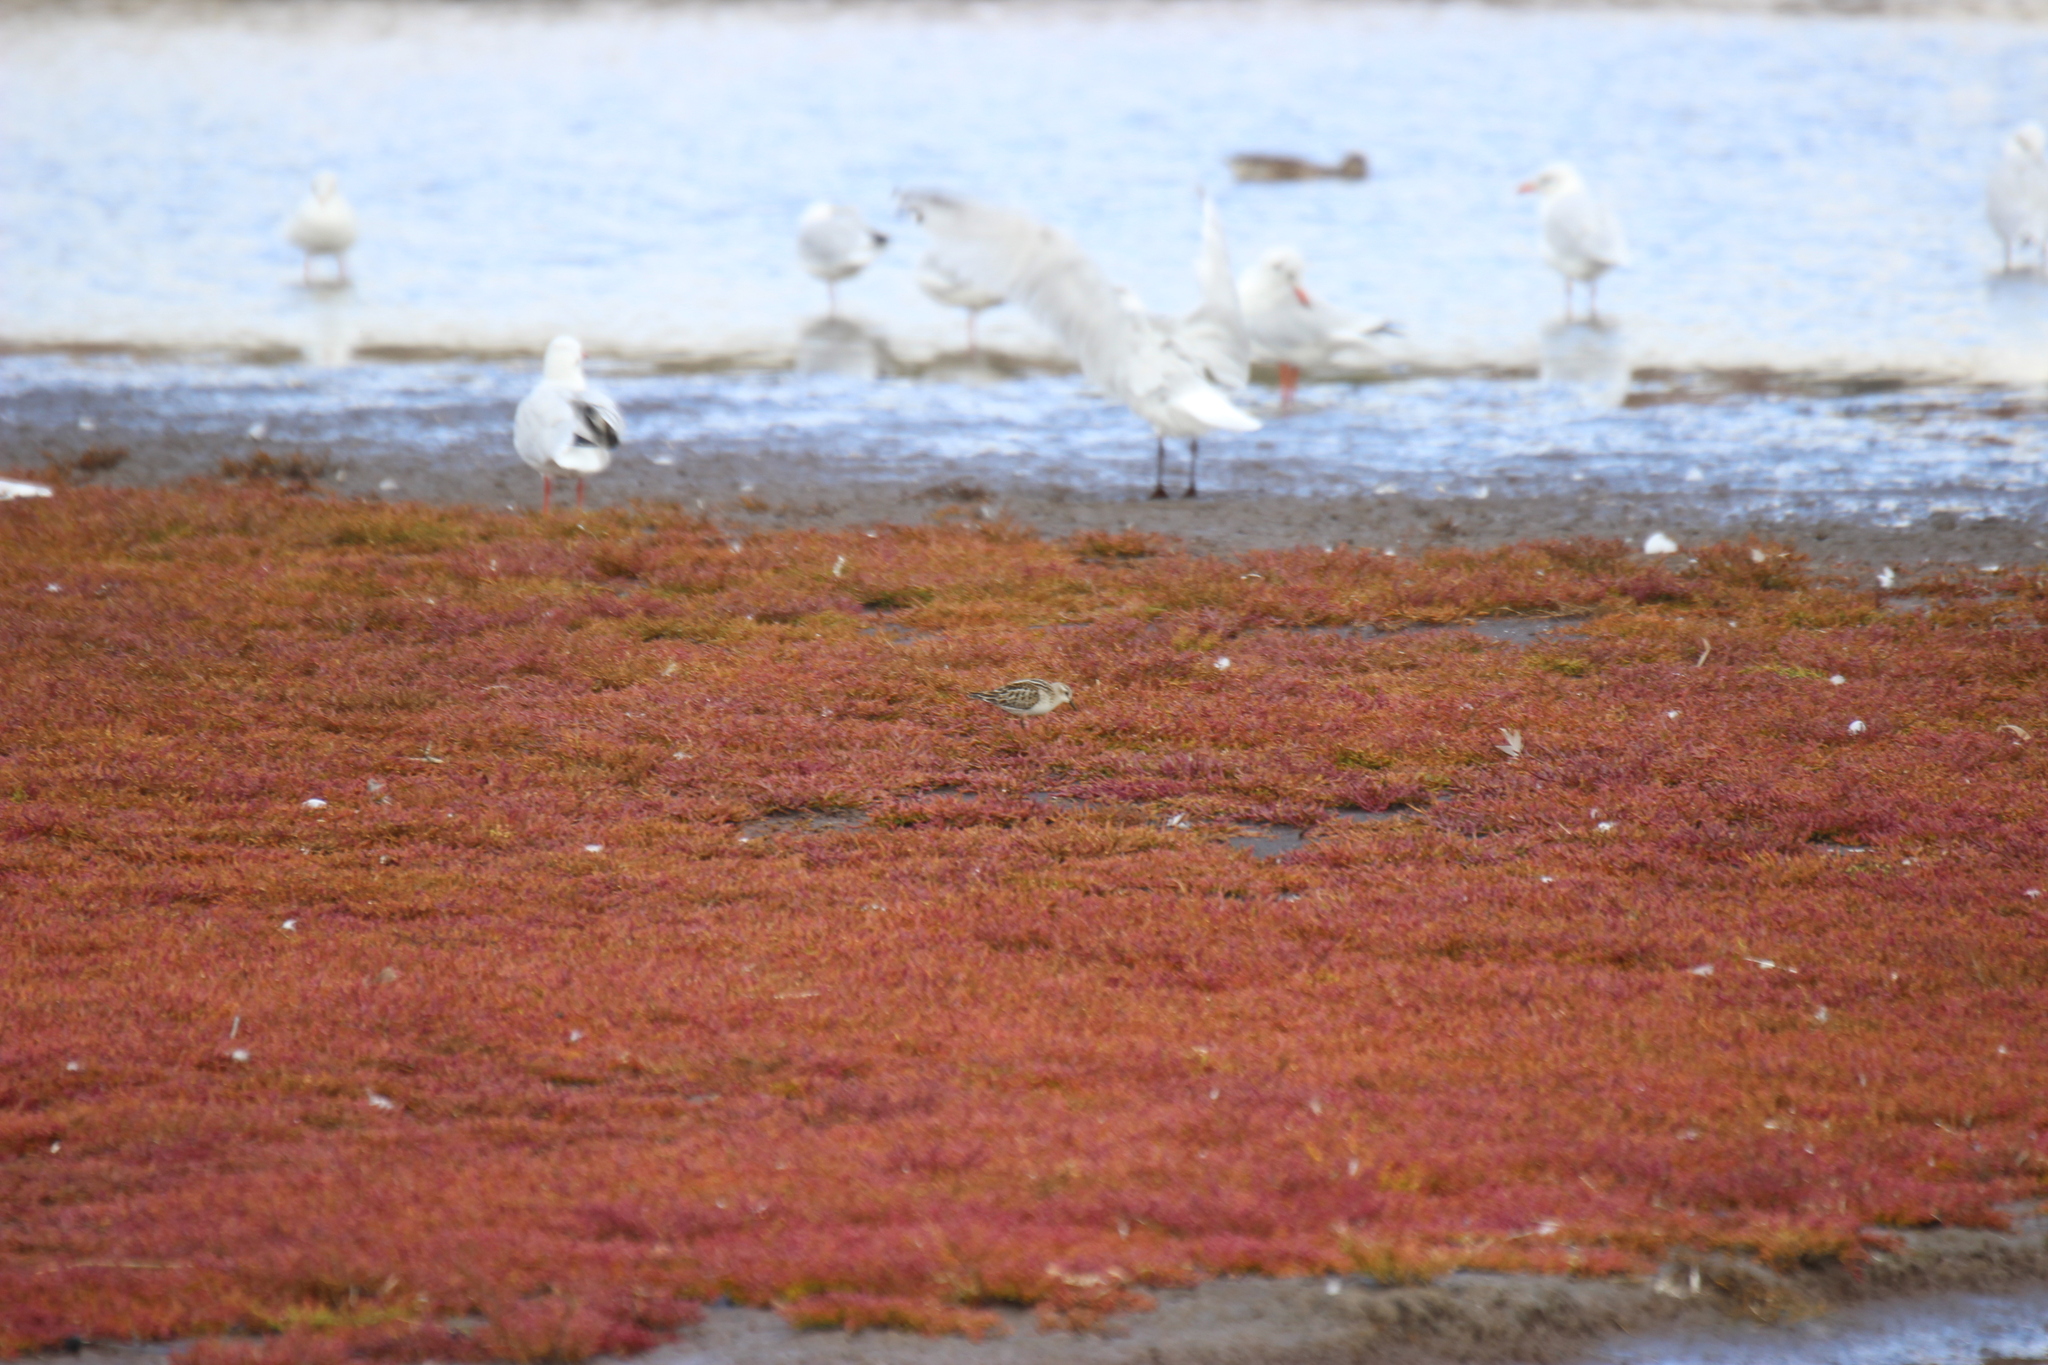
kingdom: Animalia
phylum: Chordata
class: Aves
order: Charadriiformes
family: Scolopacidae
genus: Calidris
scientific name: Calidris minuta
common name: Little stint
